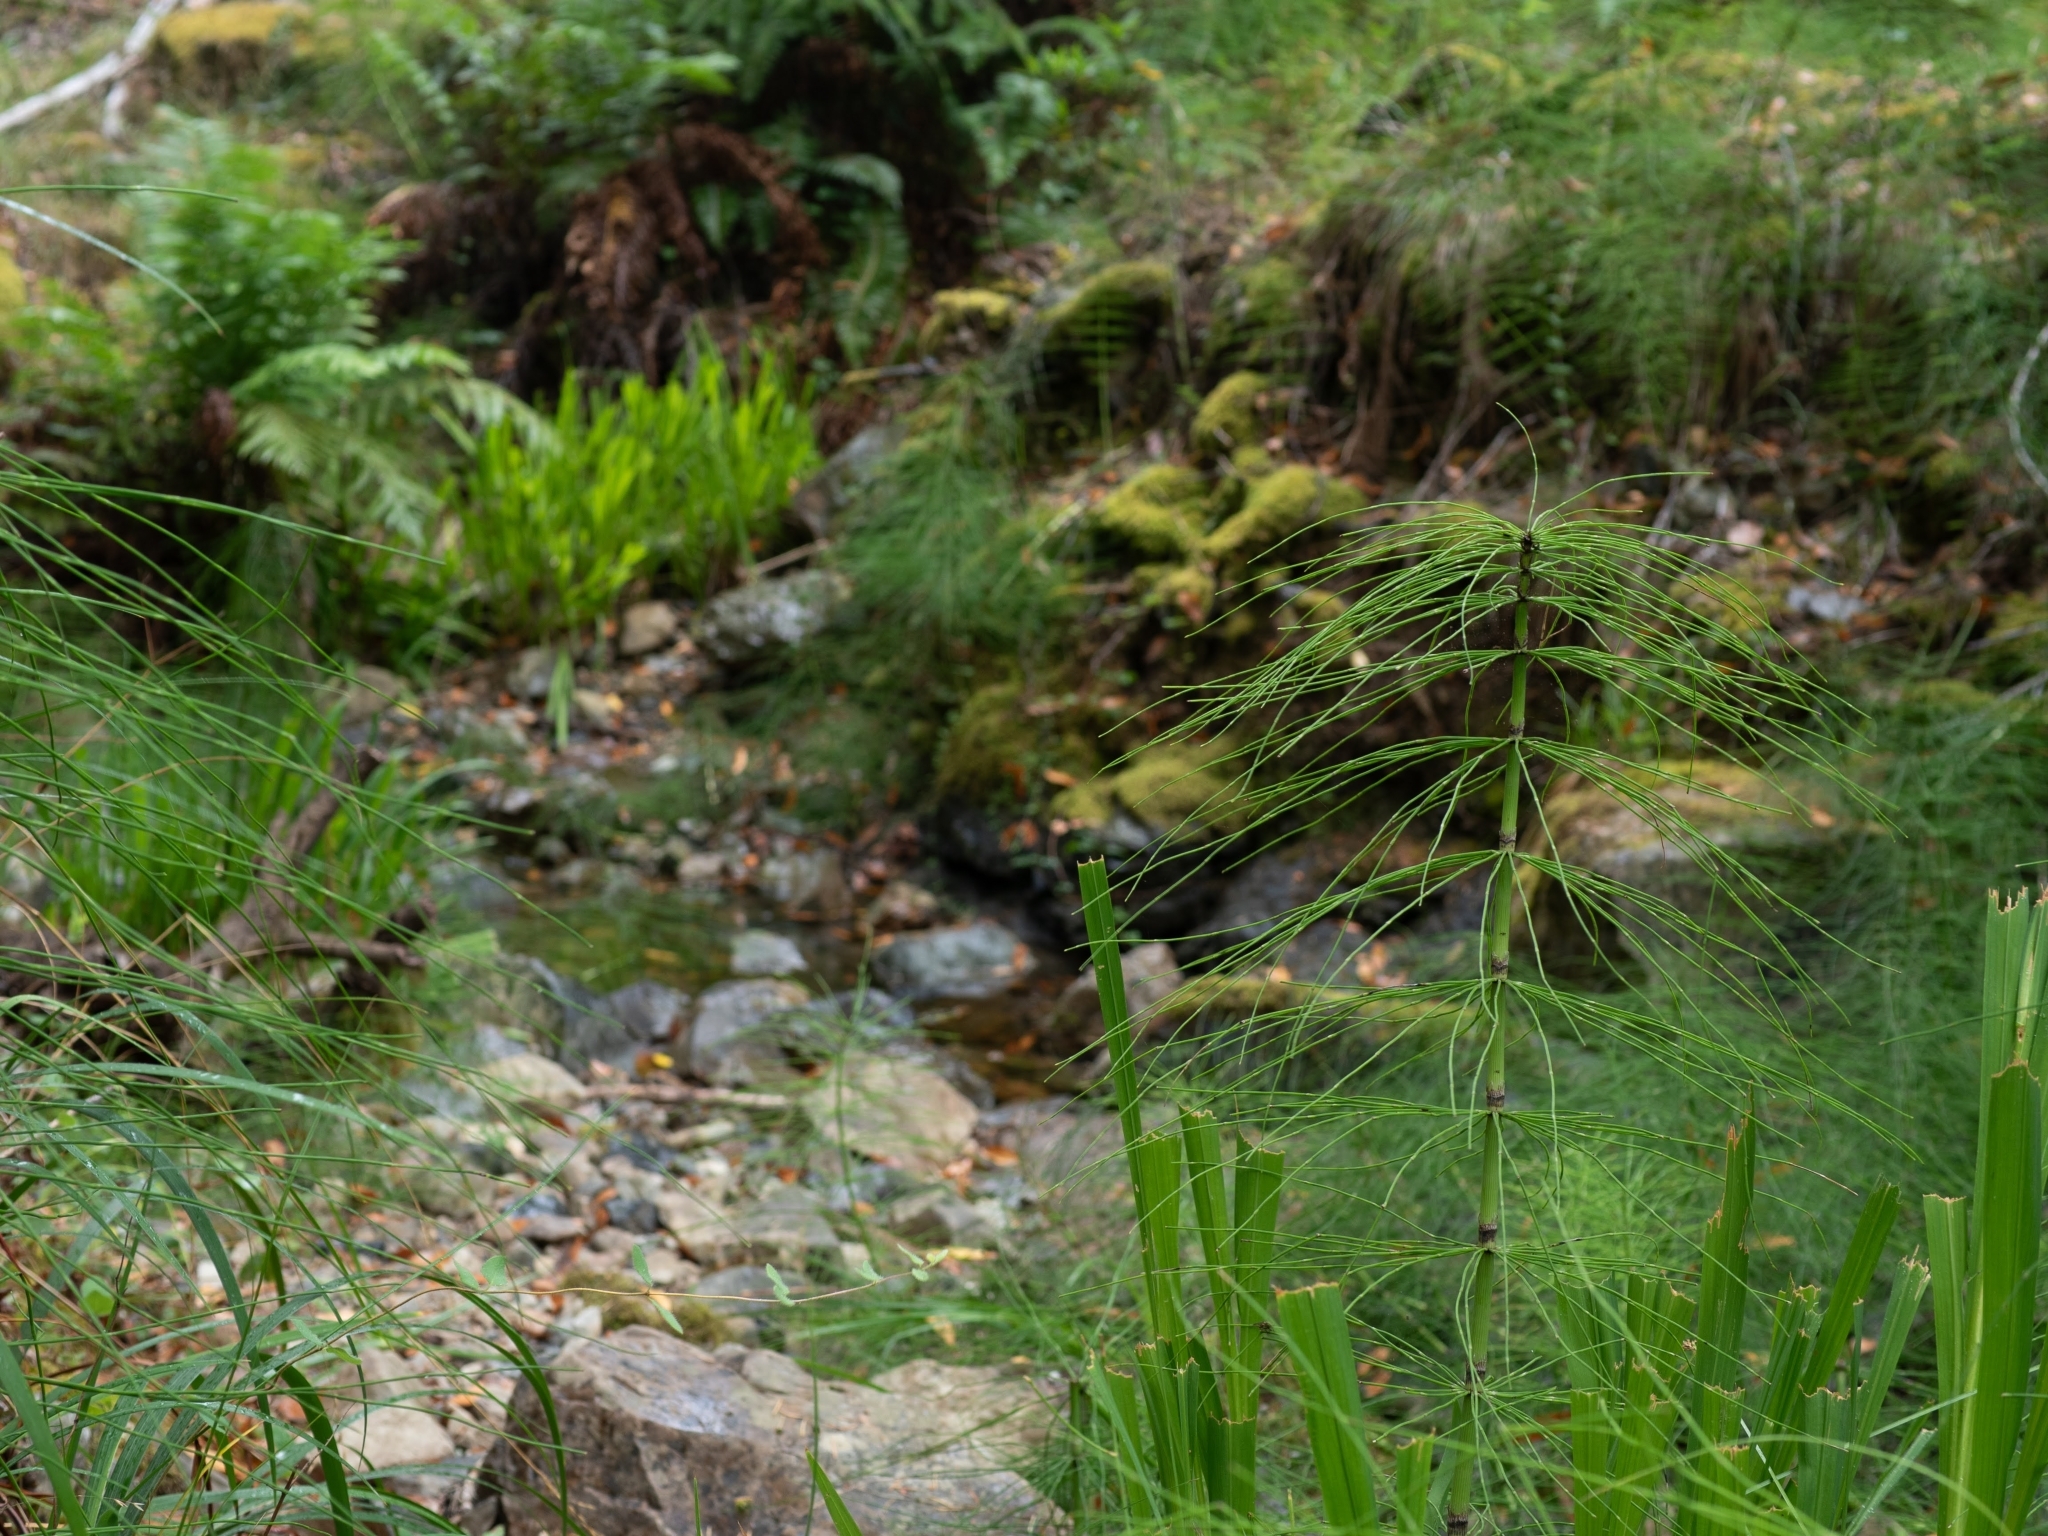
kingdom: Plantae
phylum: Tracheophyta
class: Polypodiopsida
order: Equisetales
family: Equisetaceae
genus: Equisetum
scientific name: Equisetum telmateia
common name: Great horsetail
